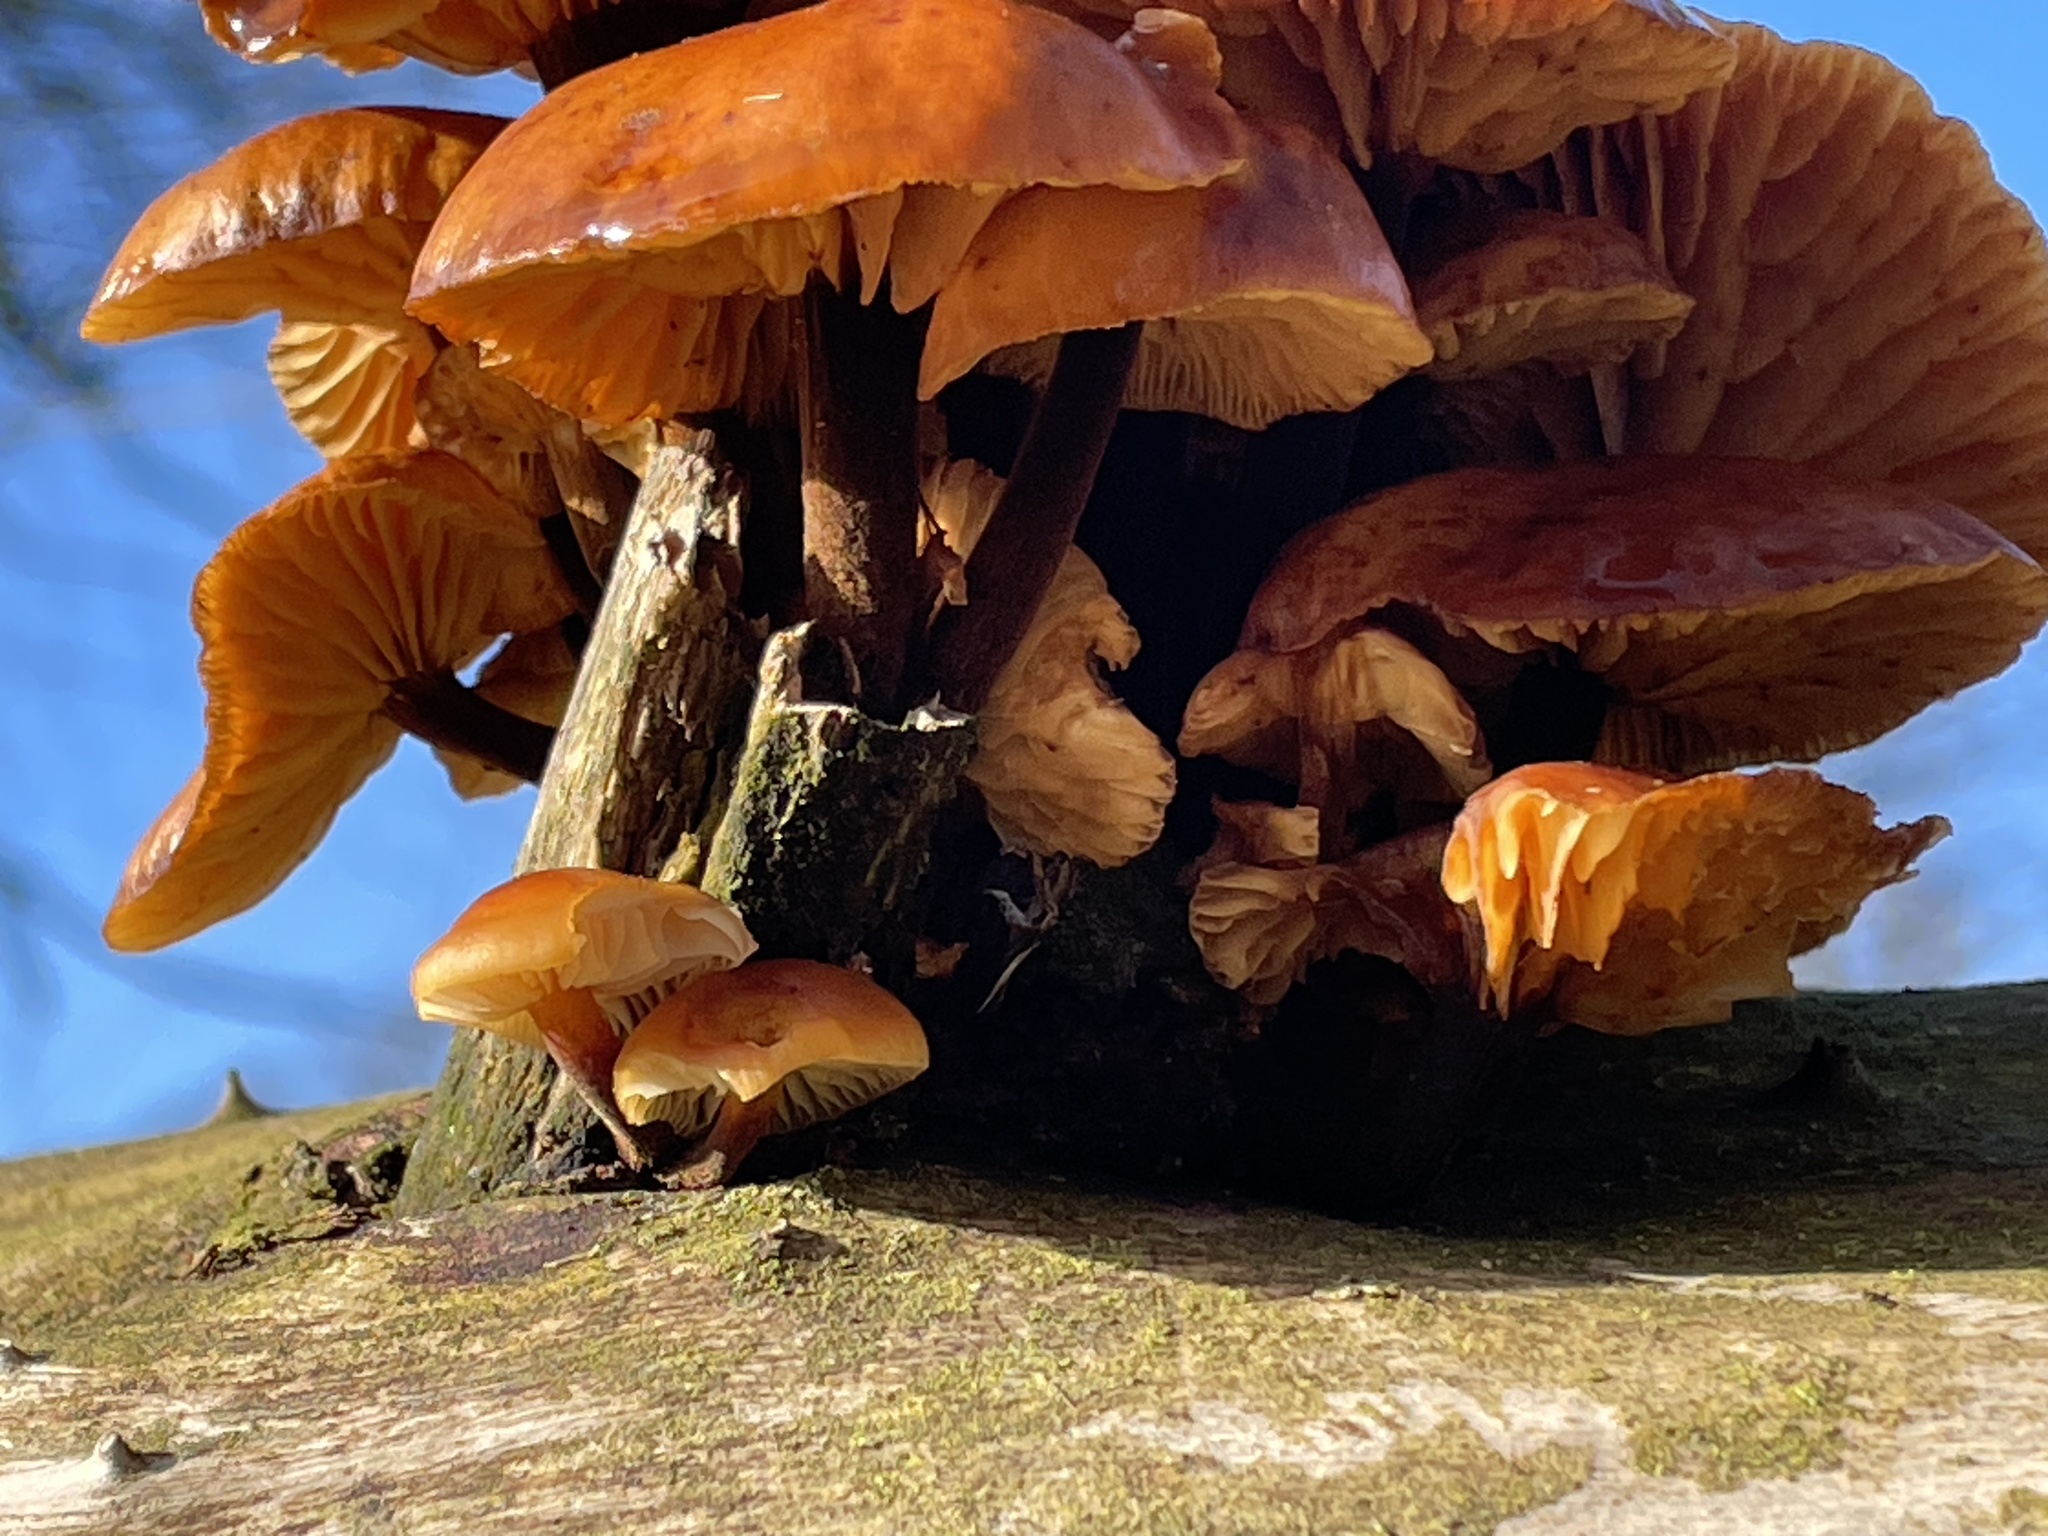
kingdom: Fungi
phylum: Basidiomycota
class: Agaricomycetes
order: Agaricales
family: Physalacriaceae
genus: Flammulina
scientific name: Flammulina
